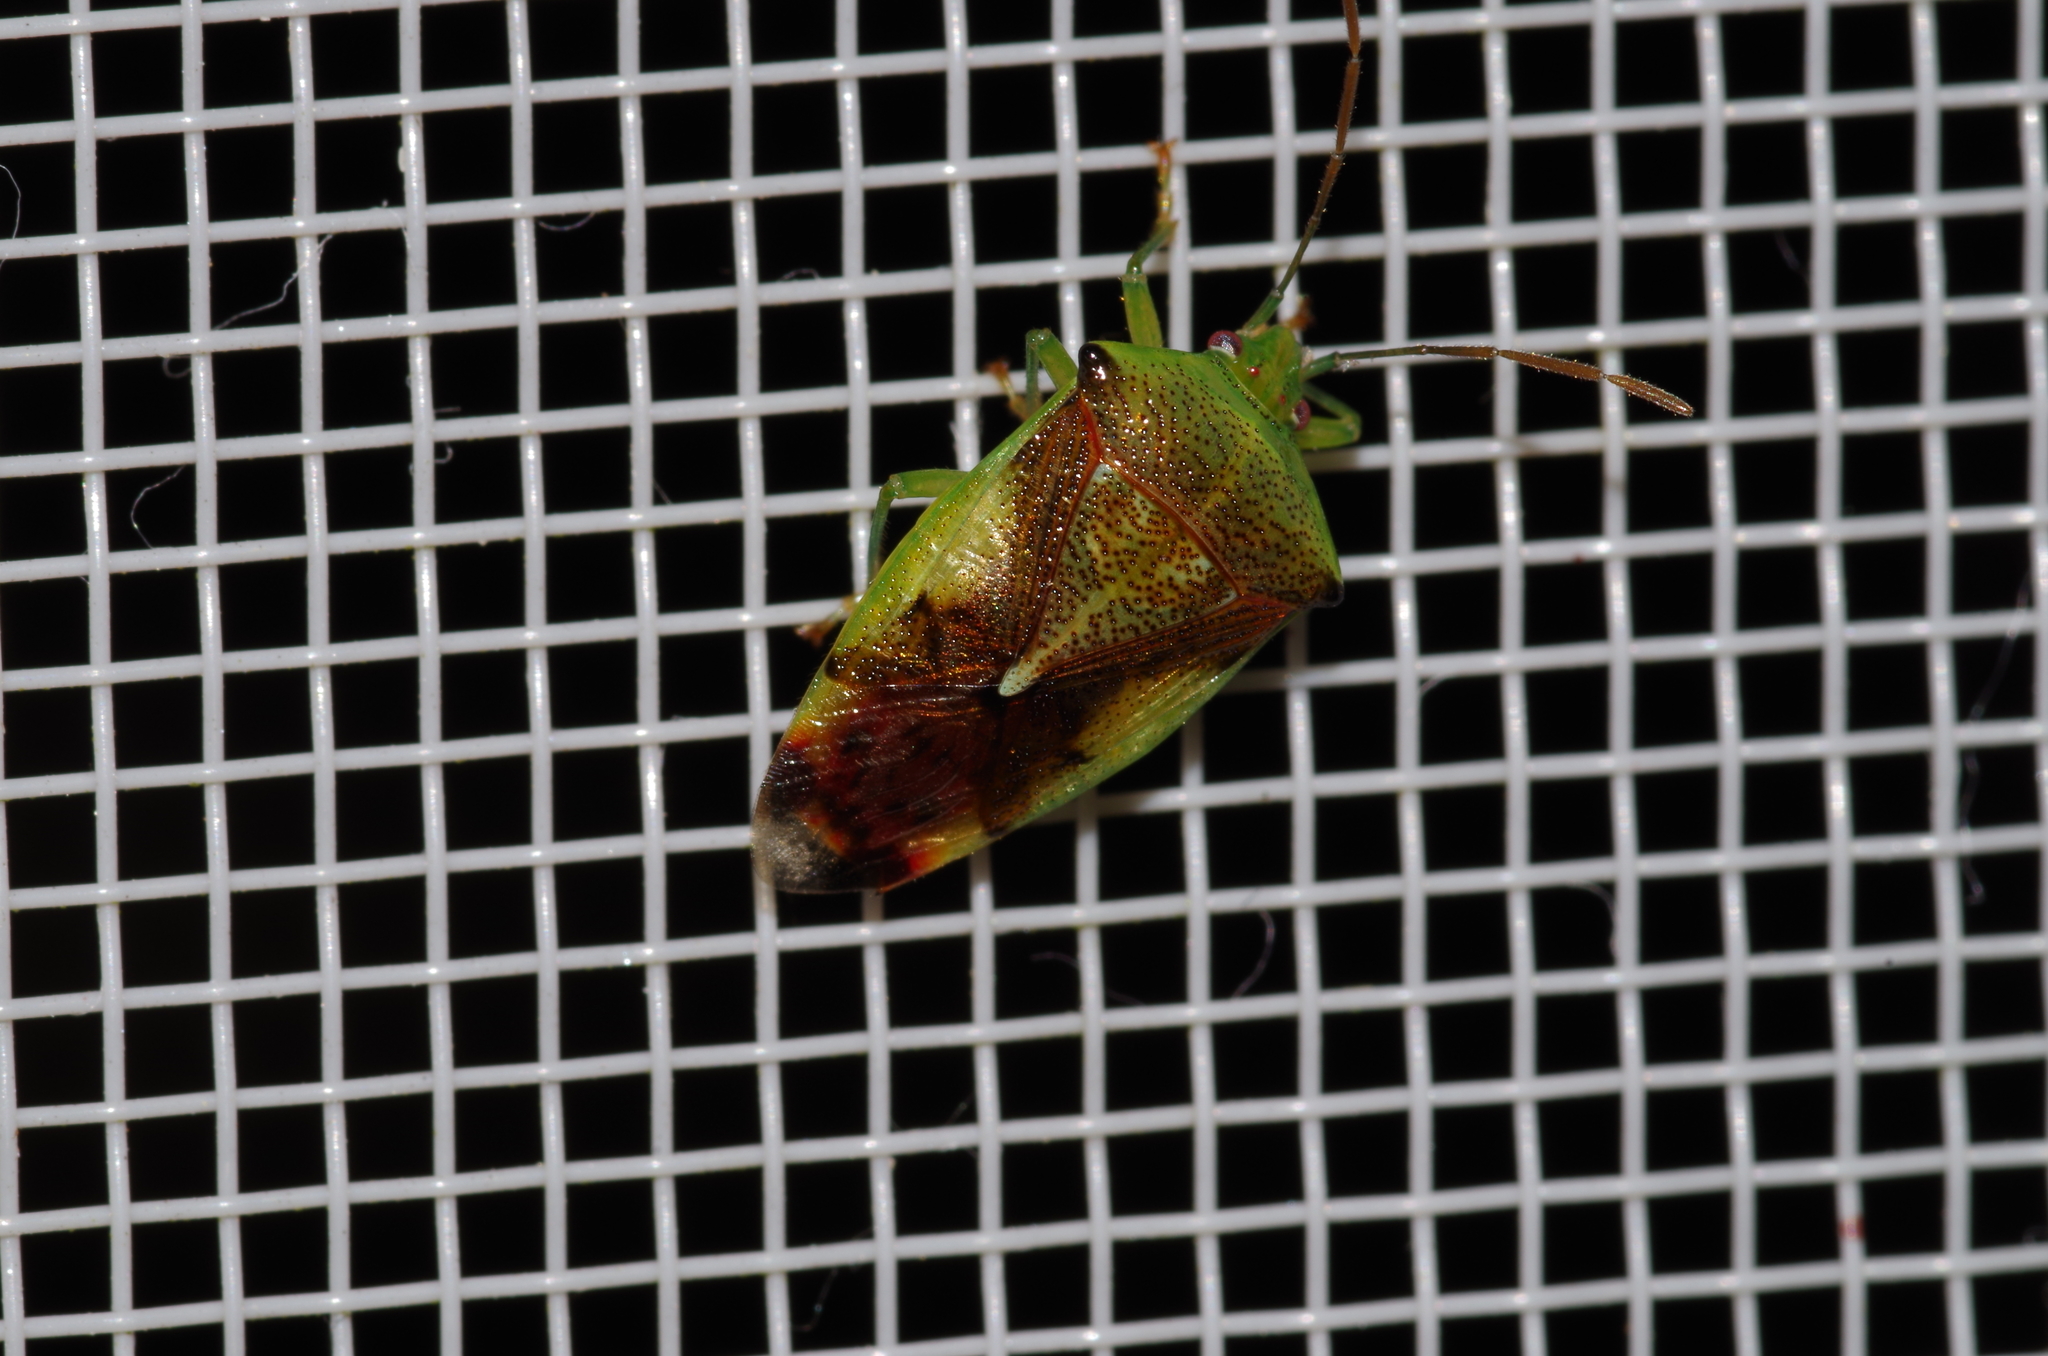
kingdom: Animalia
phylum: Arthropoda
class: Insecta
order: Hemiptera
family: Acanthosomatidae
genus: Elasmostethus
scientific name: Elasmostethus nubilus
